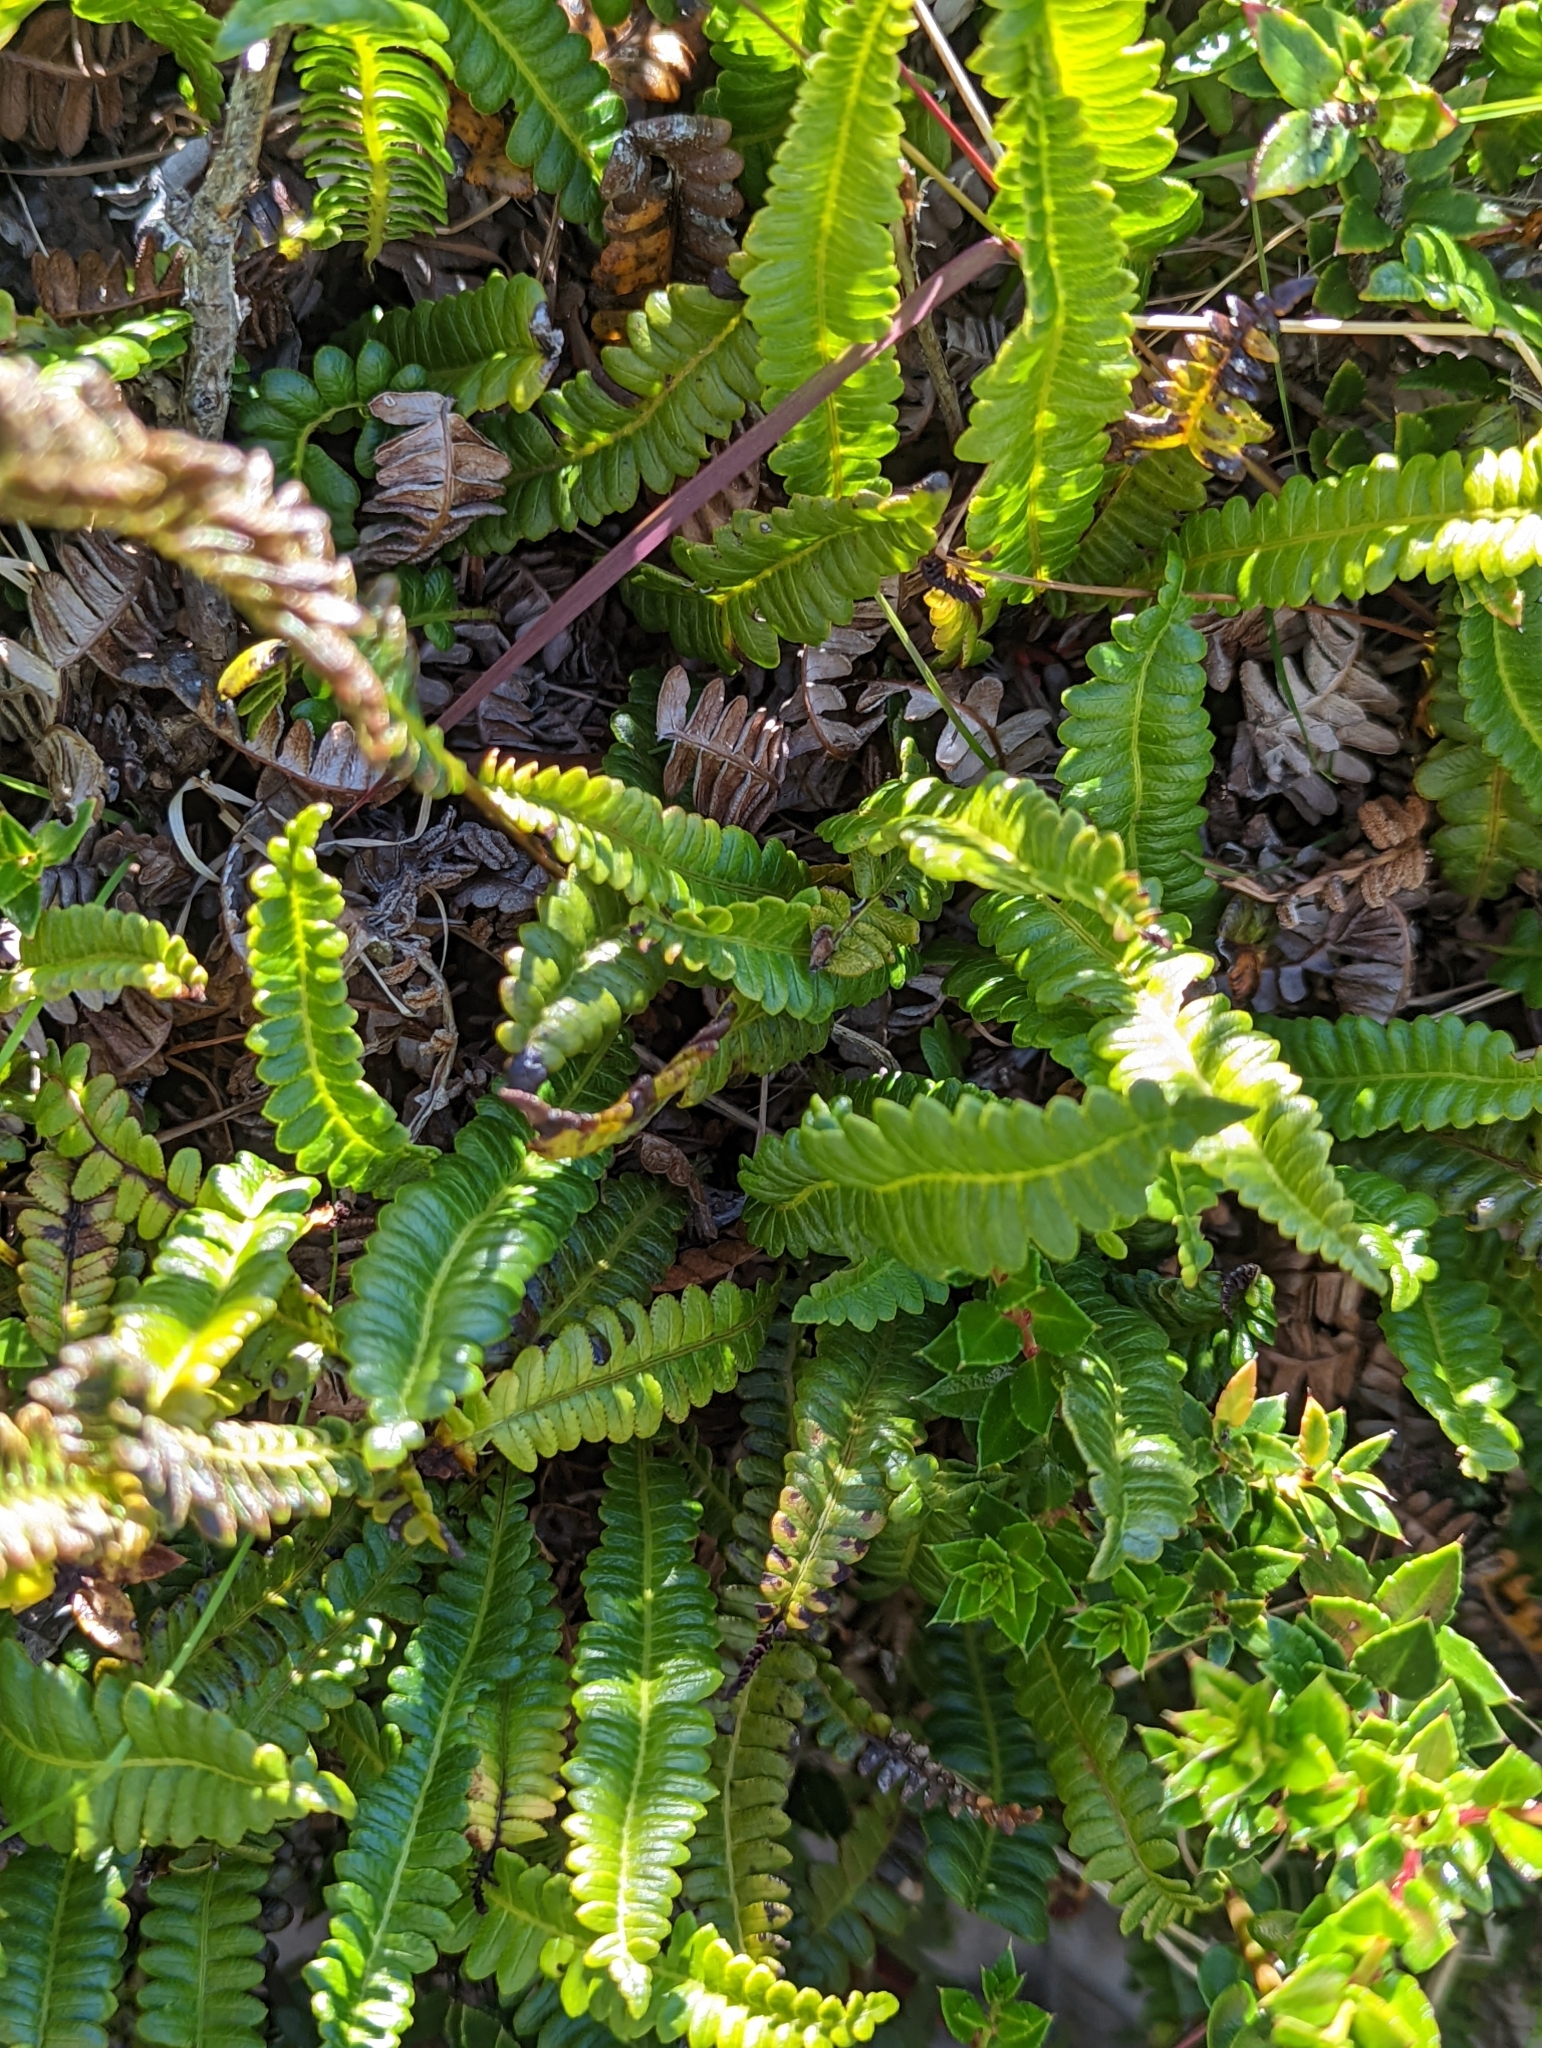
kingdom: Plantae
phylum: Tracheophyta
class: Polypodiopsida
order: Polypodiales
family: Blechnaceae
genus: Austroblechnum
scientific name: Austroblechnum penna-marina
